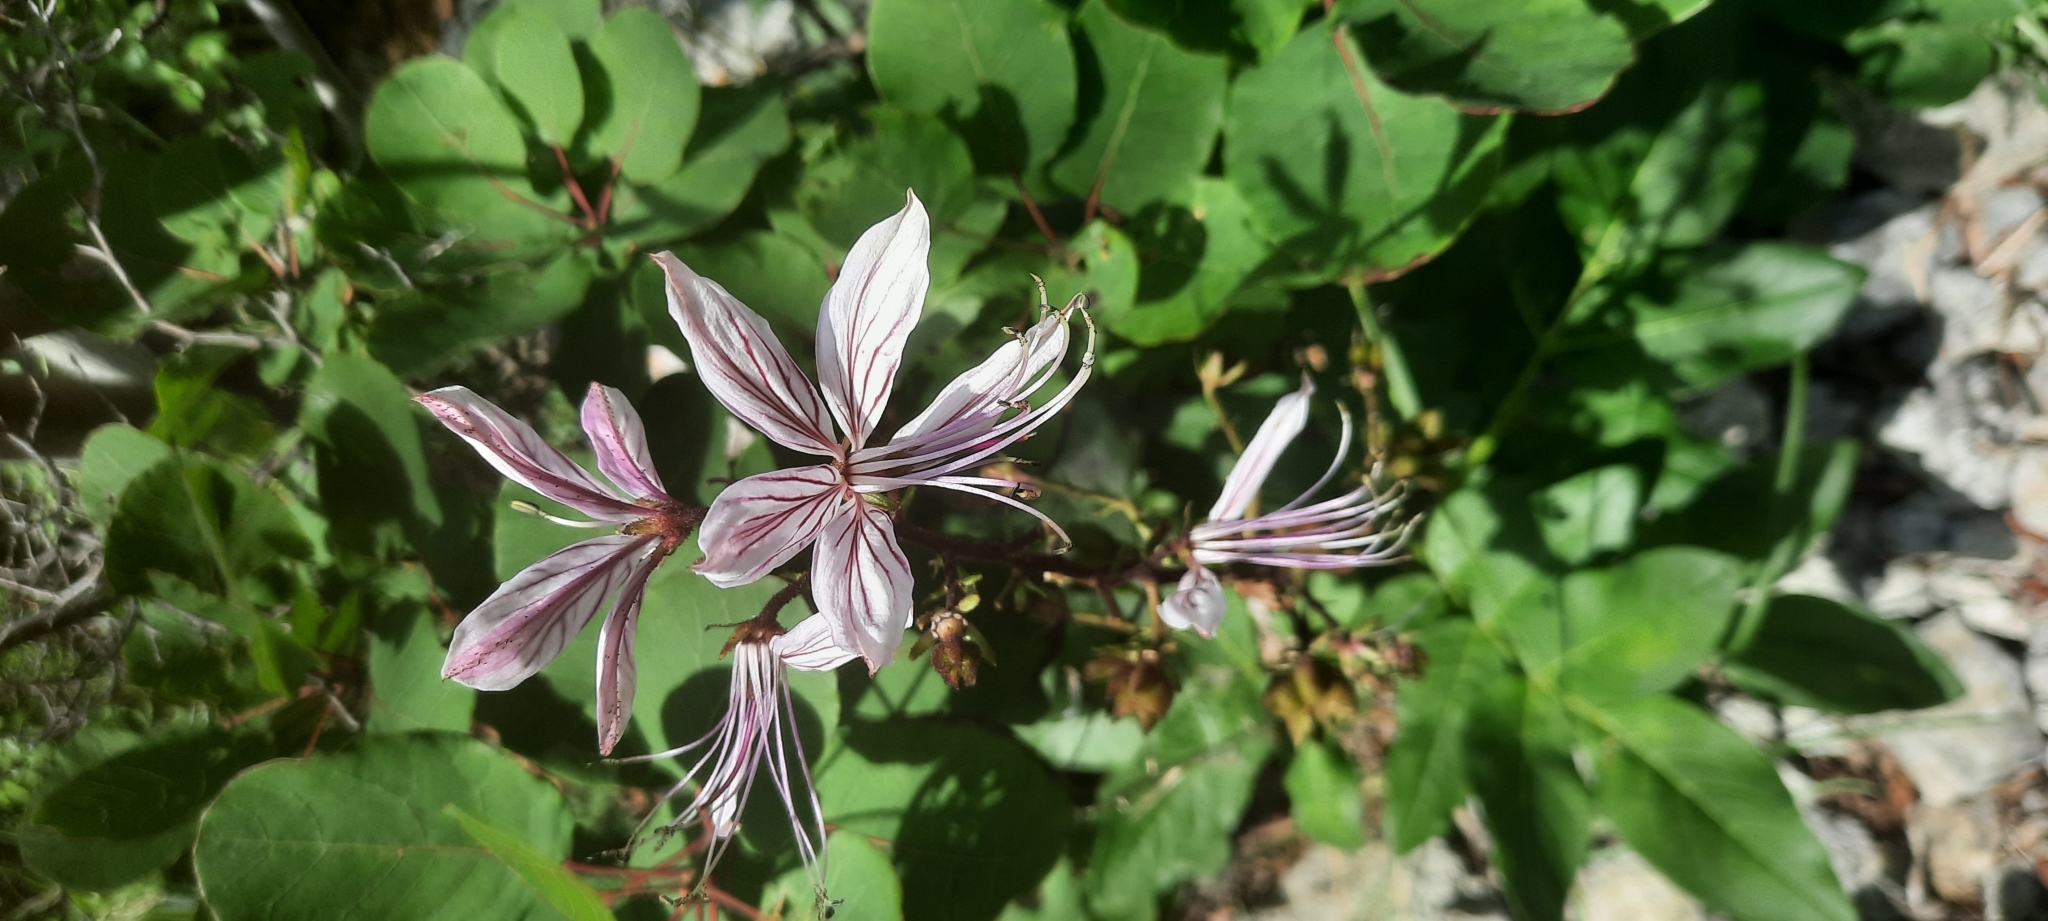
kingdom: Plantae
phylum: Tracheophyta
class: Magnoliopsida
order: Sapindales
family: Rutaceae
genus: Dictamnus
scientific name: Dictamnus albus
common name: Gasplant
